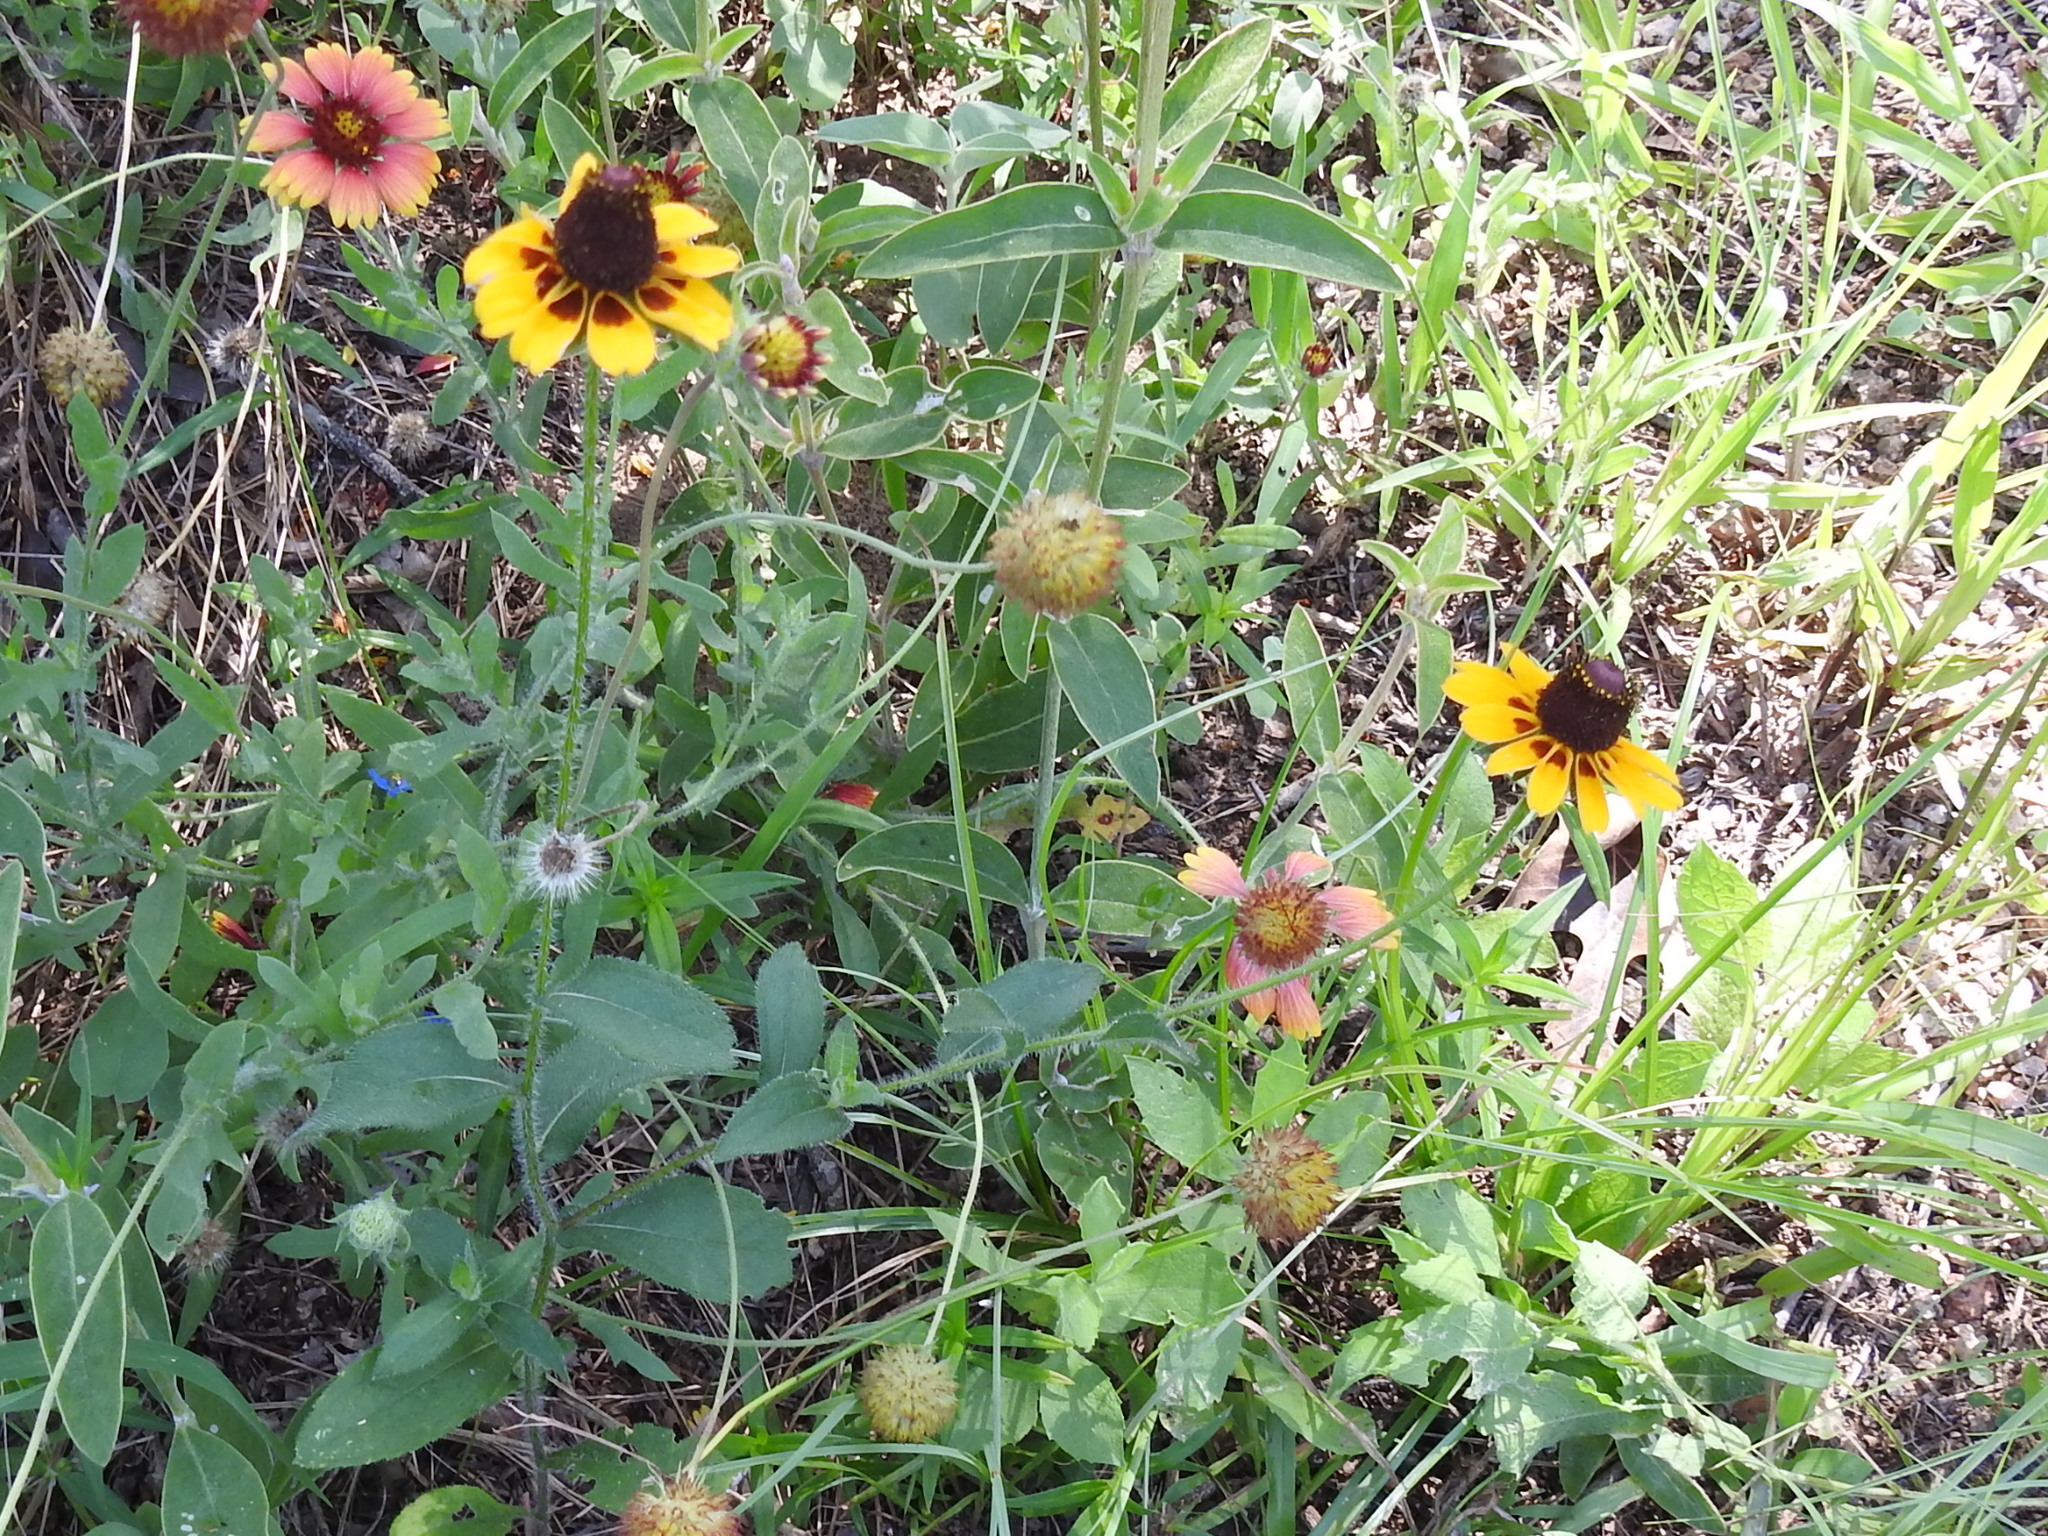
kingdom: Plantae
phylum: Tracheophyta
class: Magnoliopsida
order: Asterales
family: Asteraceae
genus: Rudbeckia
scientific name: Rudbeckia hirta
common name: Black-eyed-susan
